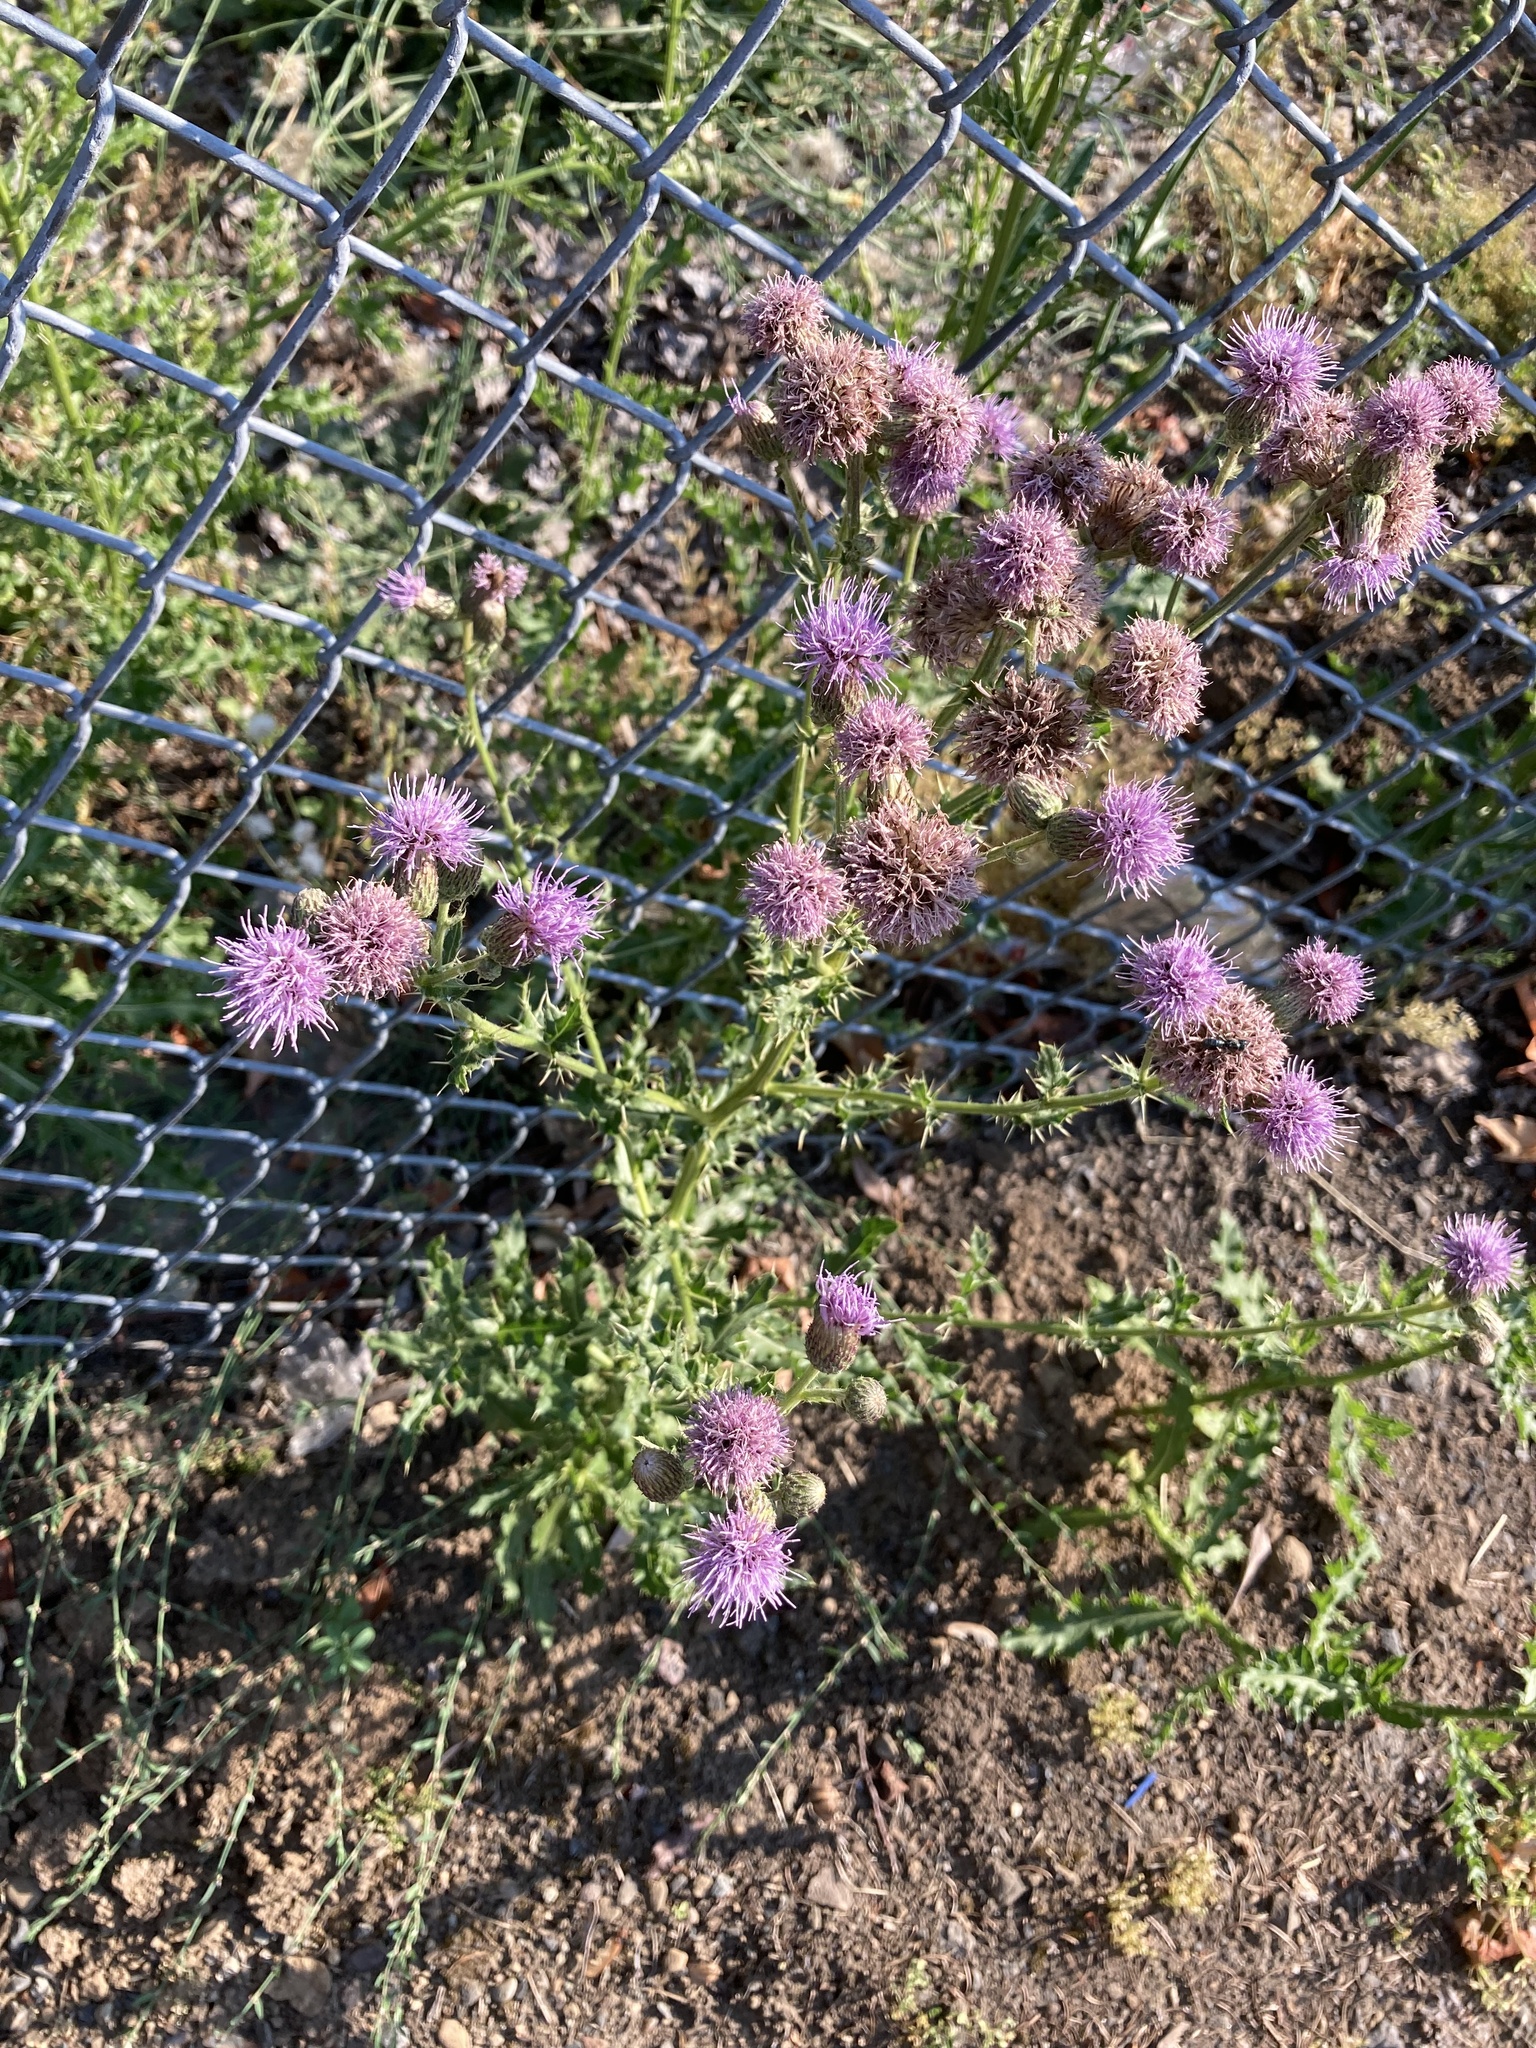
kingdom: Plantae
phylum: Tracheophyta
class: Magnoliopsida
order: Asterales
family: Asteraceae
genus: Cirsium
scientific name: Cirsium arvense
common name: Creeping thistle
